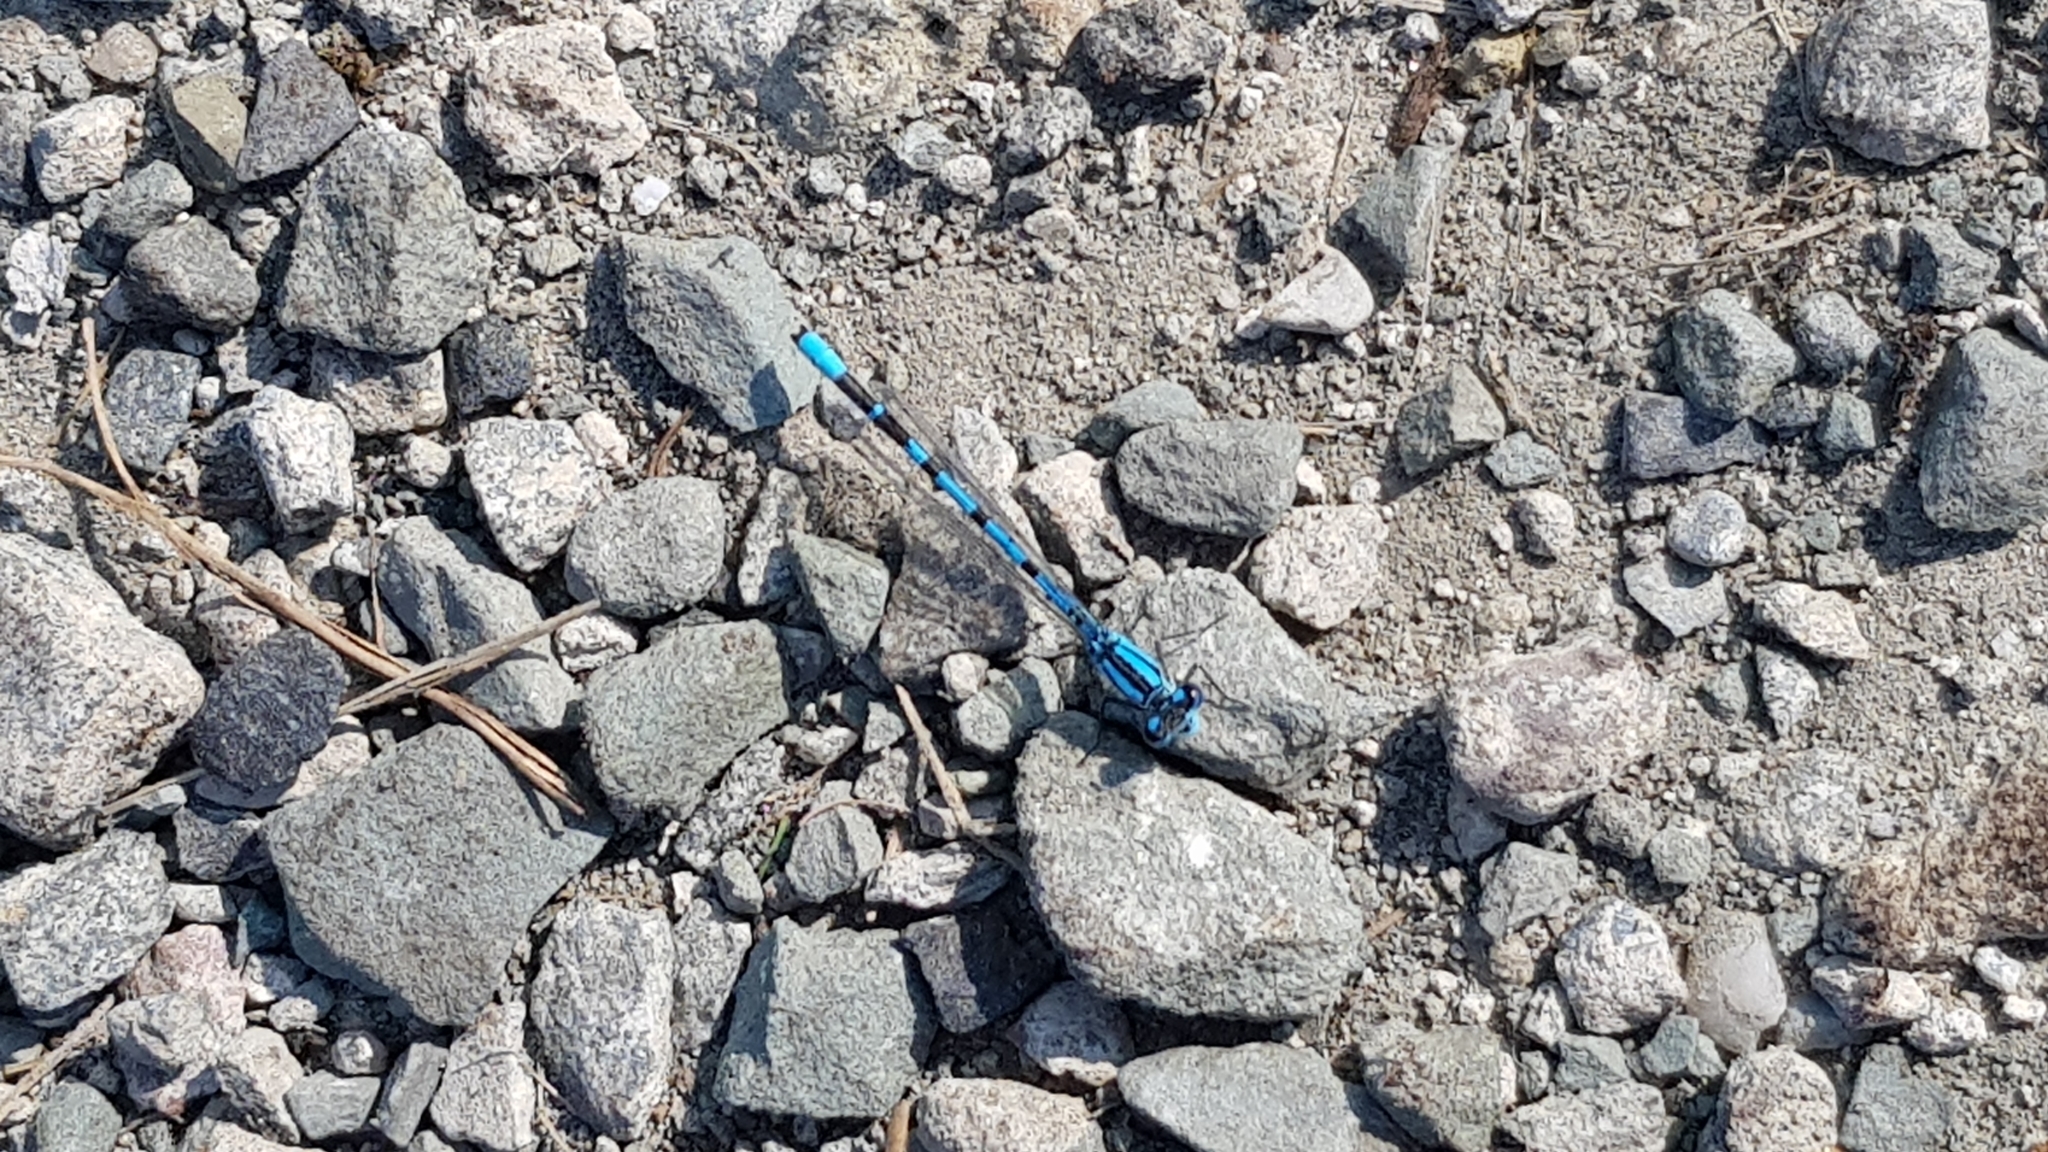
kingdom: Animalia
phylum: Arthropoda
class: Insecta
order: Odonata
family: Coenagrionidae
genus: Enallagma
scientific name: Enallagma cyathigerum
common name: Common blue damselfly
